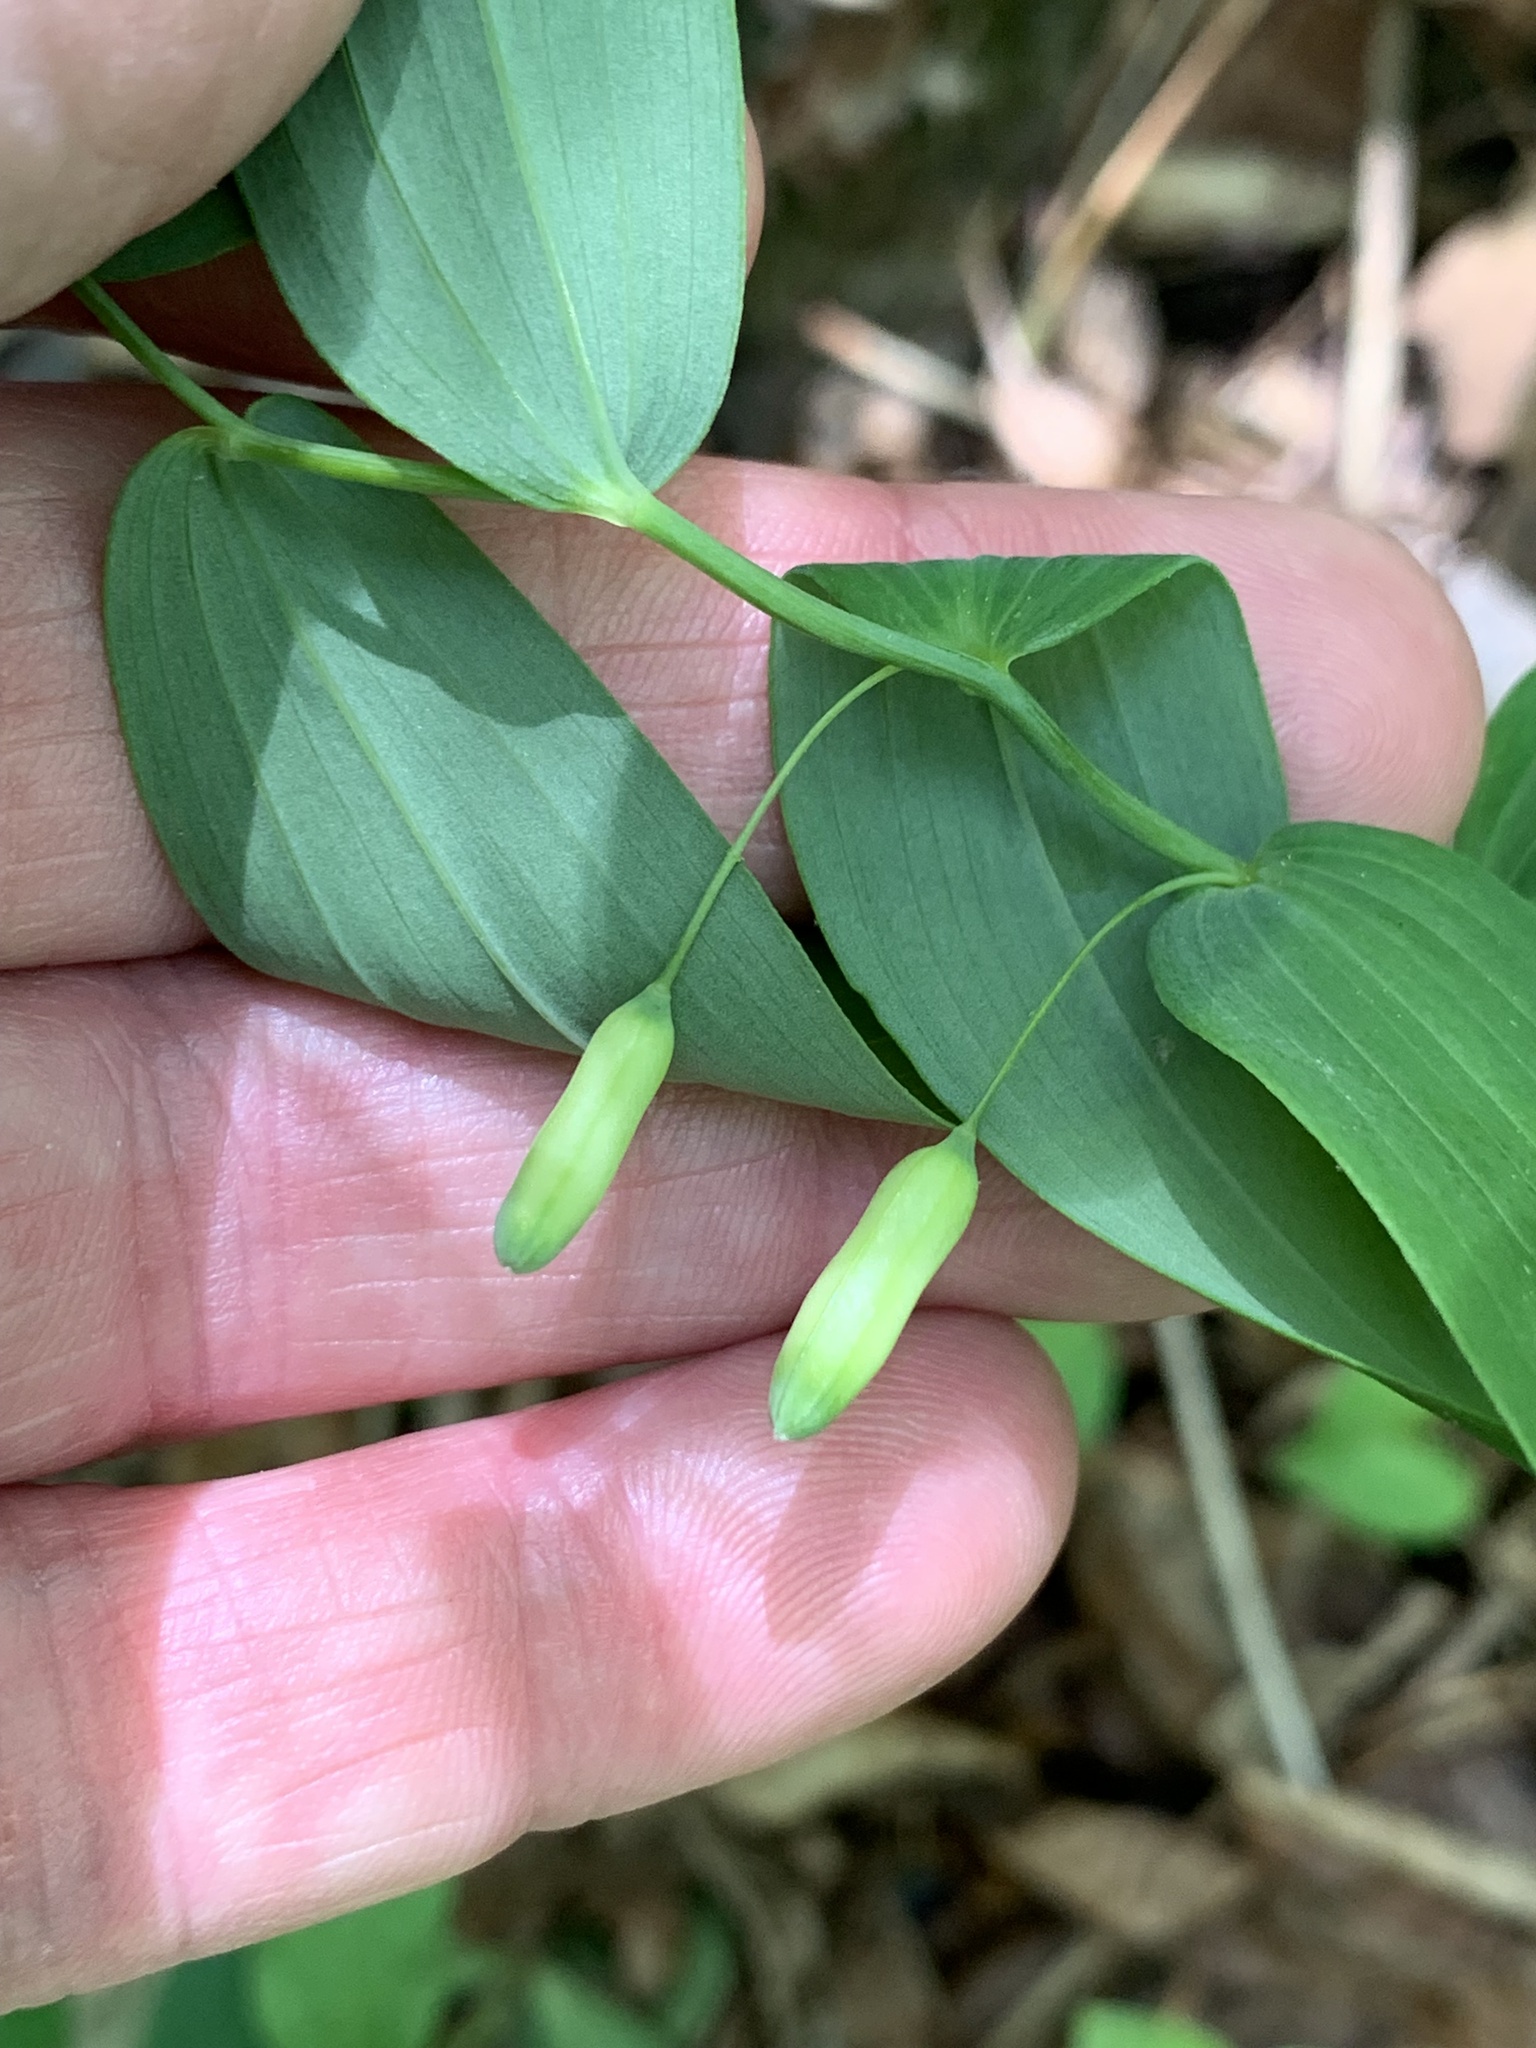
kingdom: Plantae
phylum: Tracheophyta
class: Liliopsida
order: Asparagales
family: Asparagaceae
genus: Polygonatum
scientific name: Polygonatum biflorum
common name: American solomon's-seal
